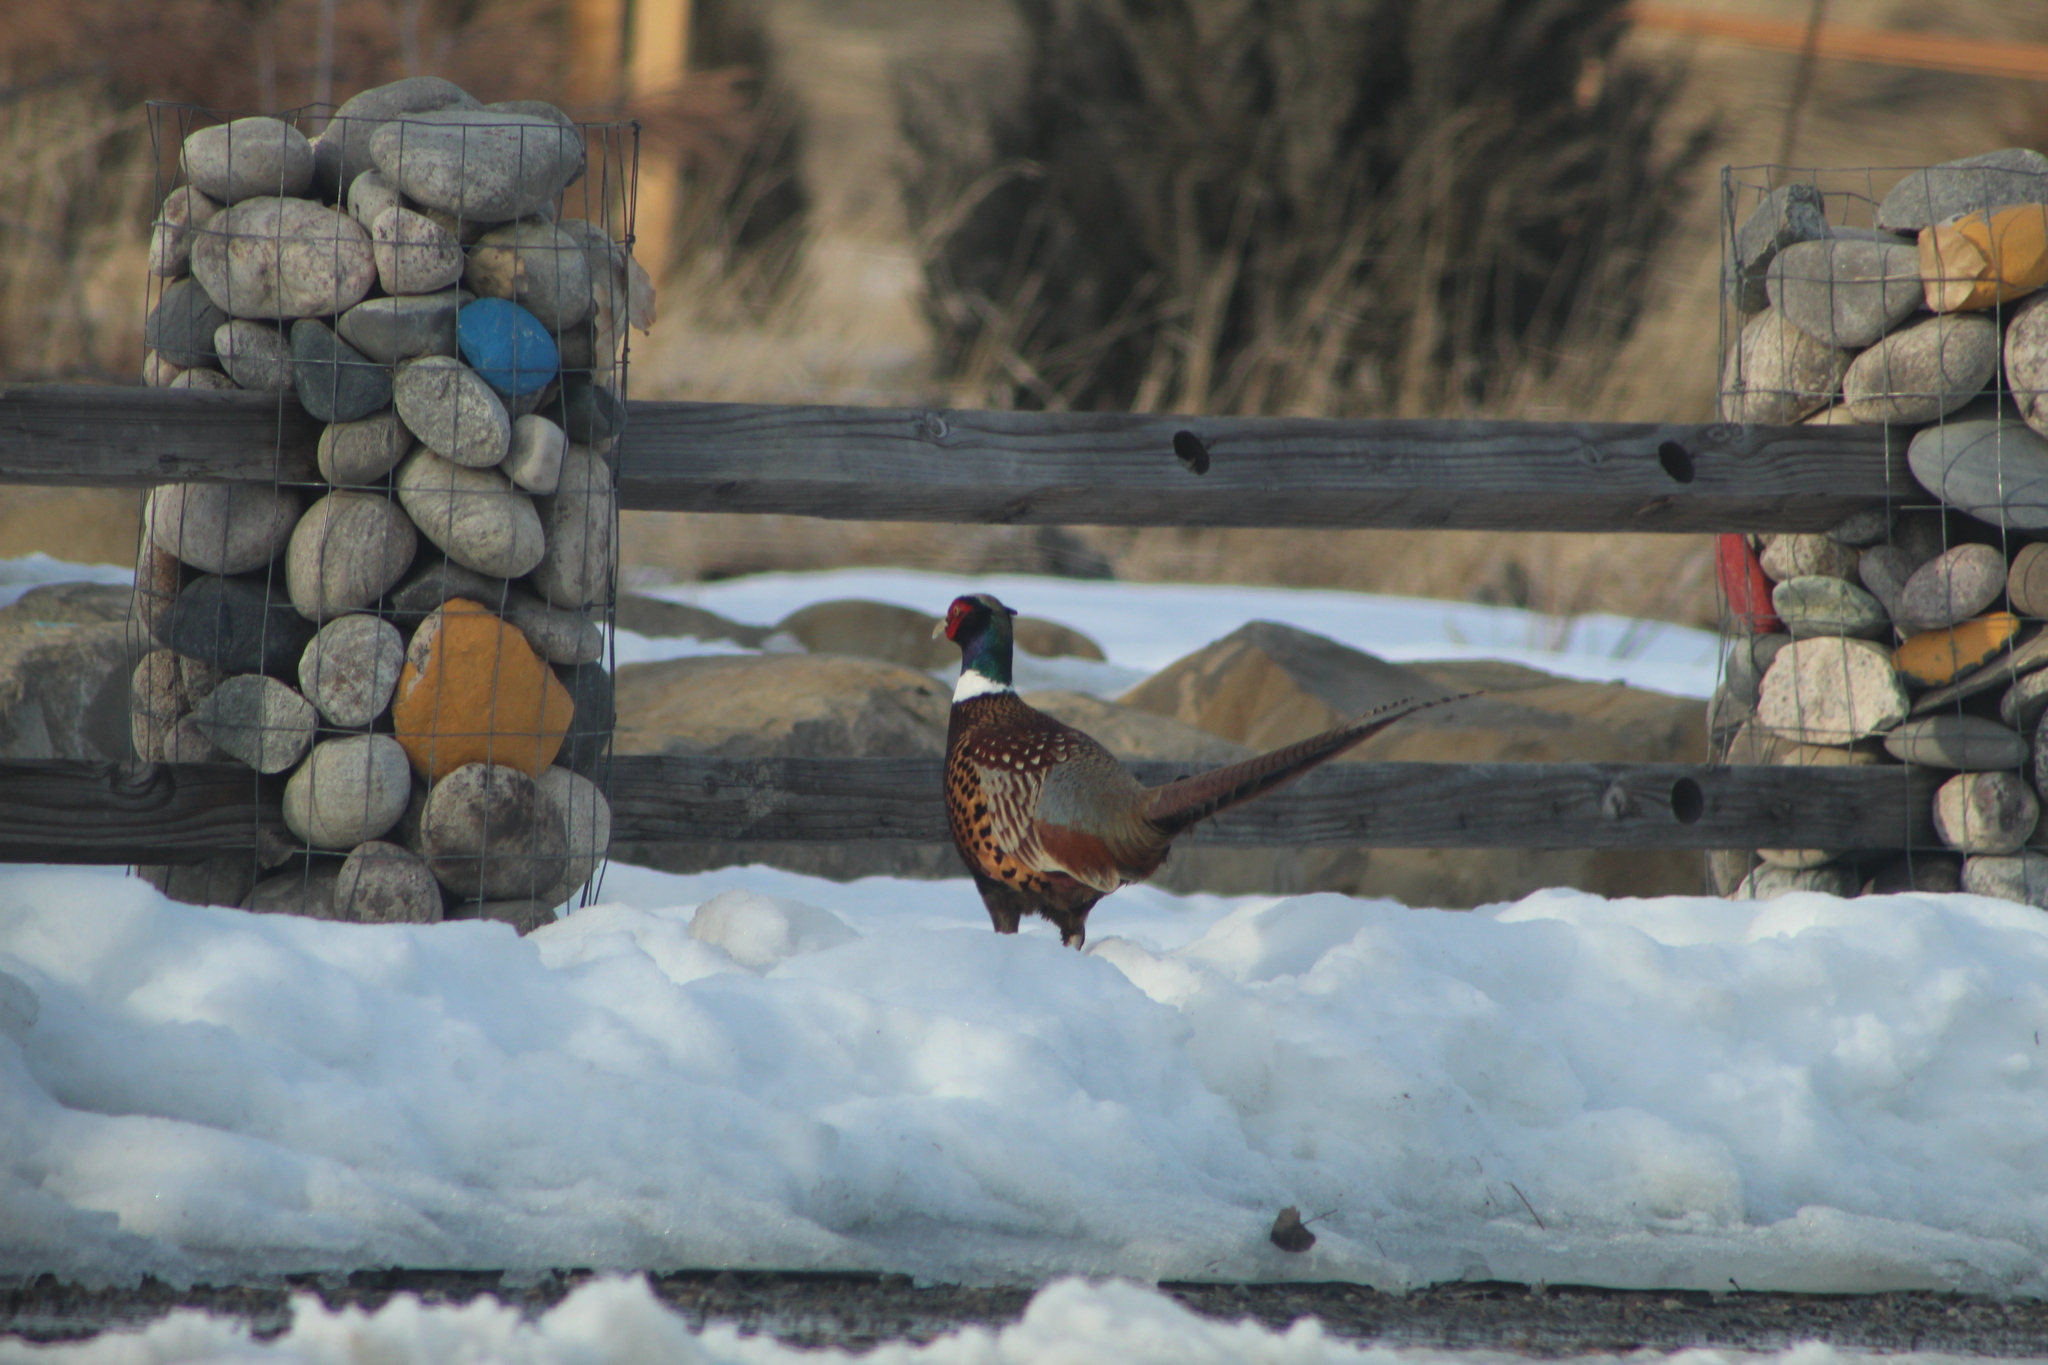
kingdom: Animalia
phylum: Chordata
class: Aves
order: Galliformes
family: Phasianidae
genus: Phasianus
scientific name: Phasianus colchicus
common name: Common pheasant
